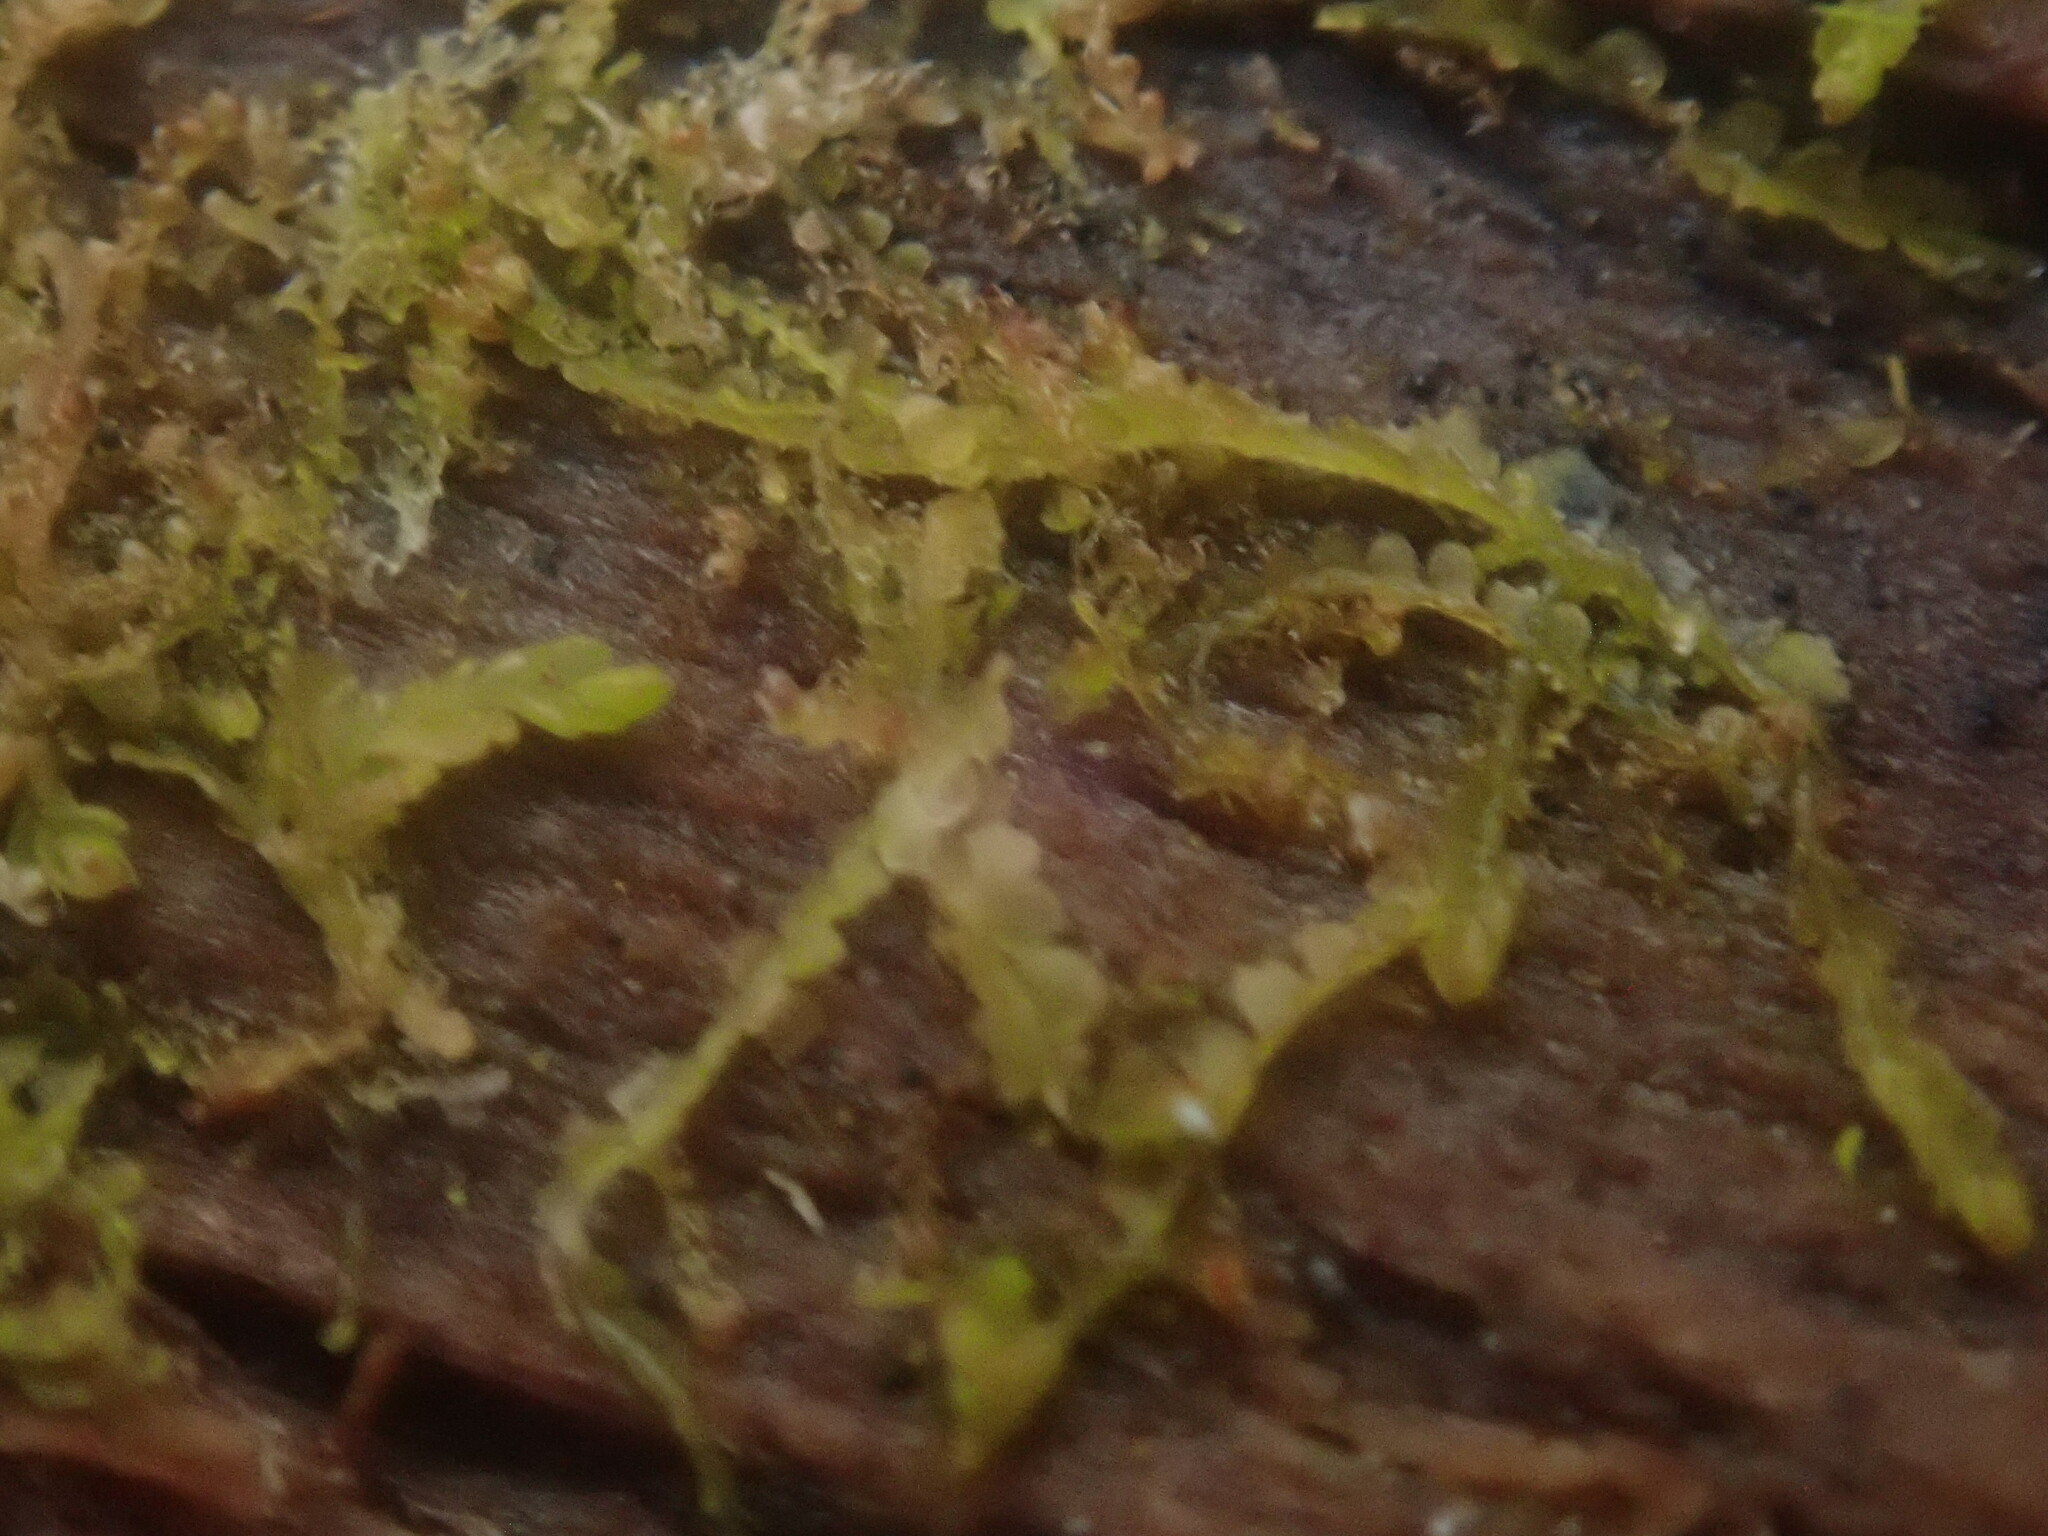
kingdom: Plantae
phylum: Marchantiophyta
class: Jungermanniopsida
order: Jungermanniales
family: Adelanthaceae
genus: Syzygiella
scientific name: Syzygiella autumnalis
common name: Jameson's liverwort
